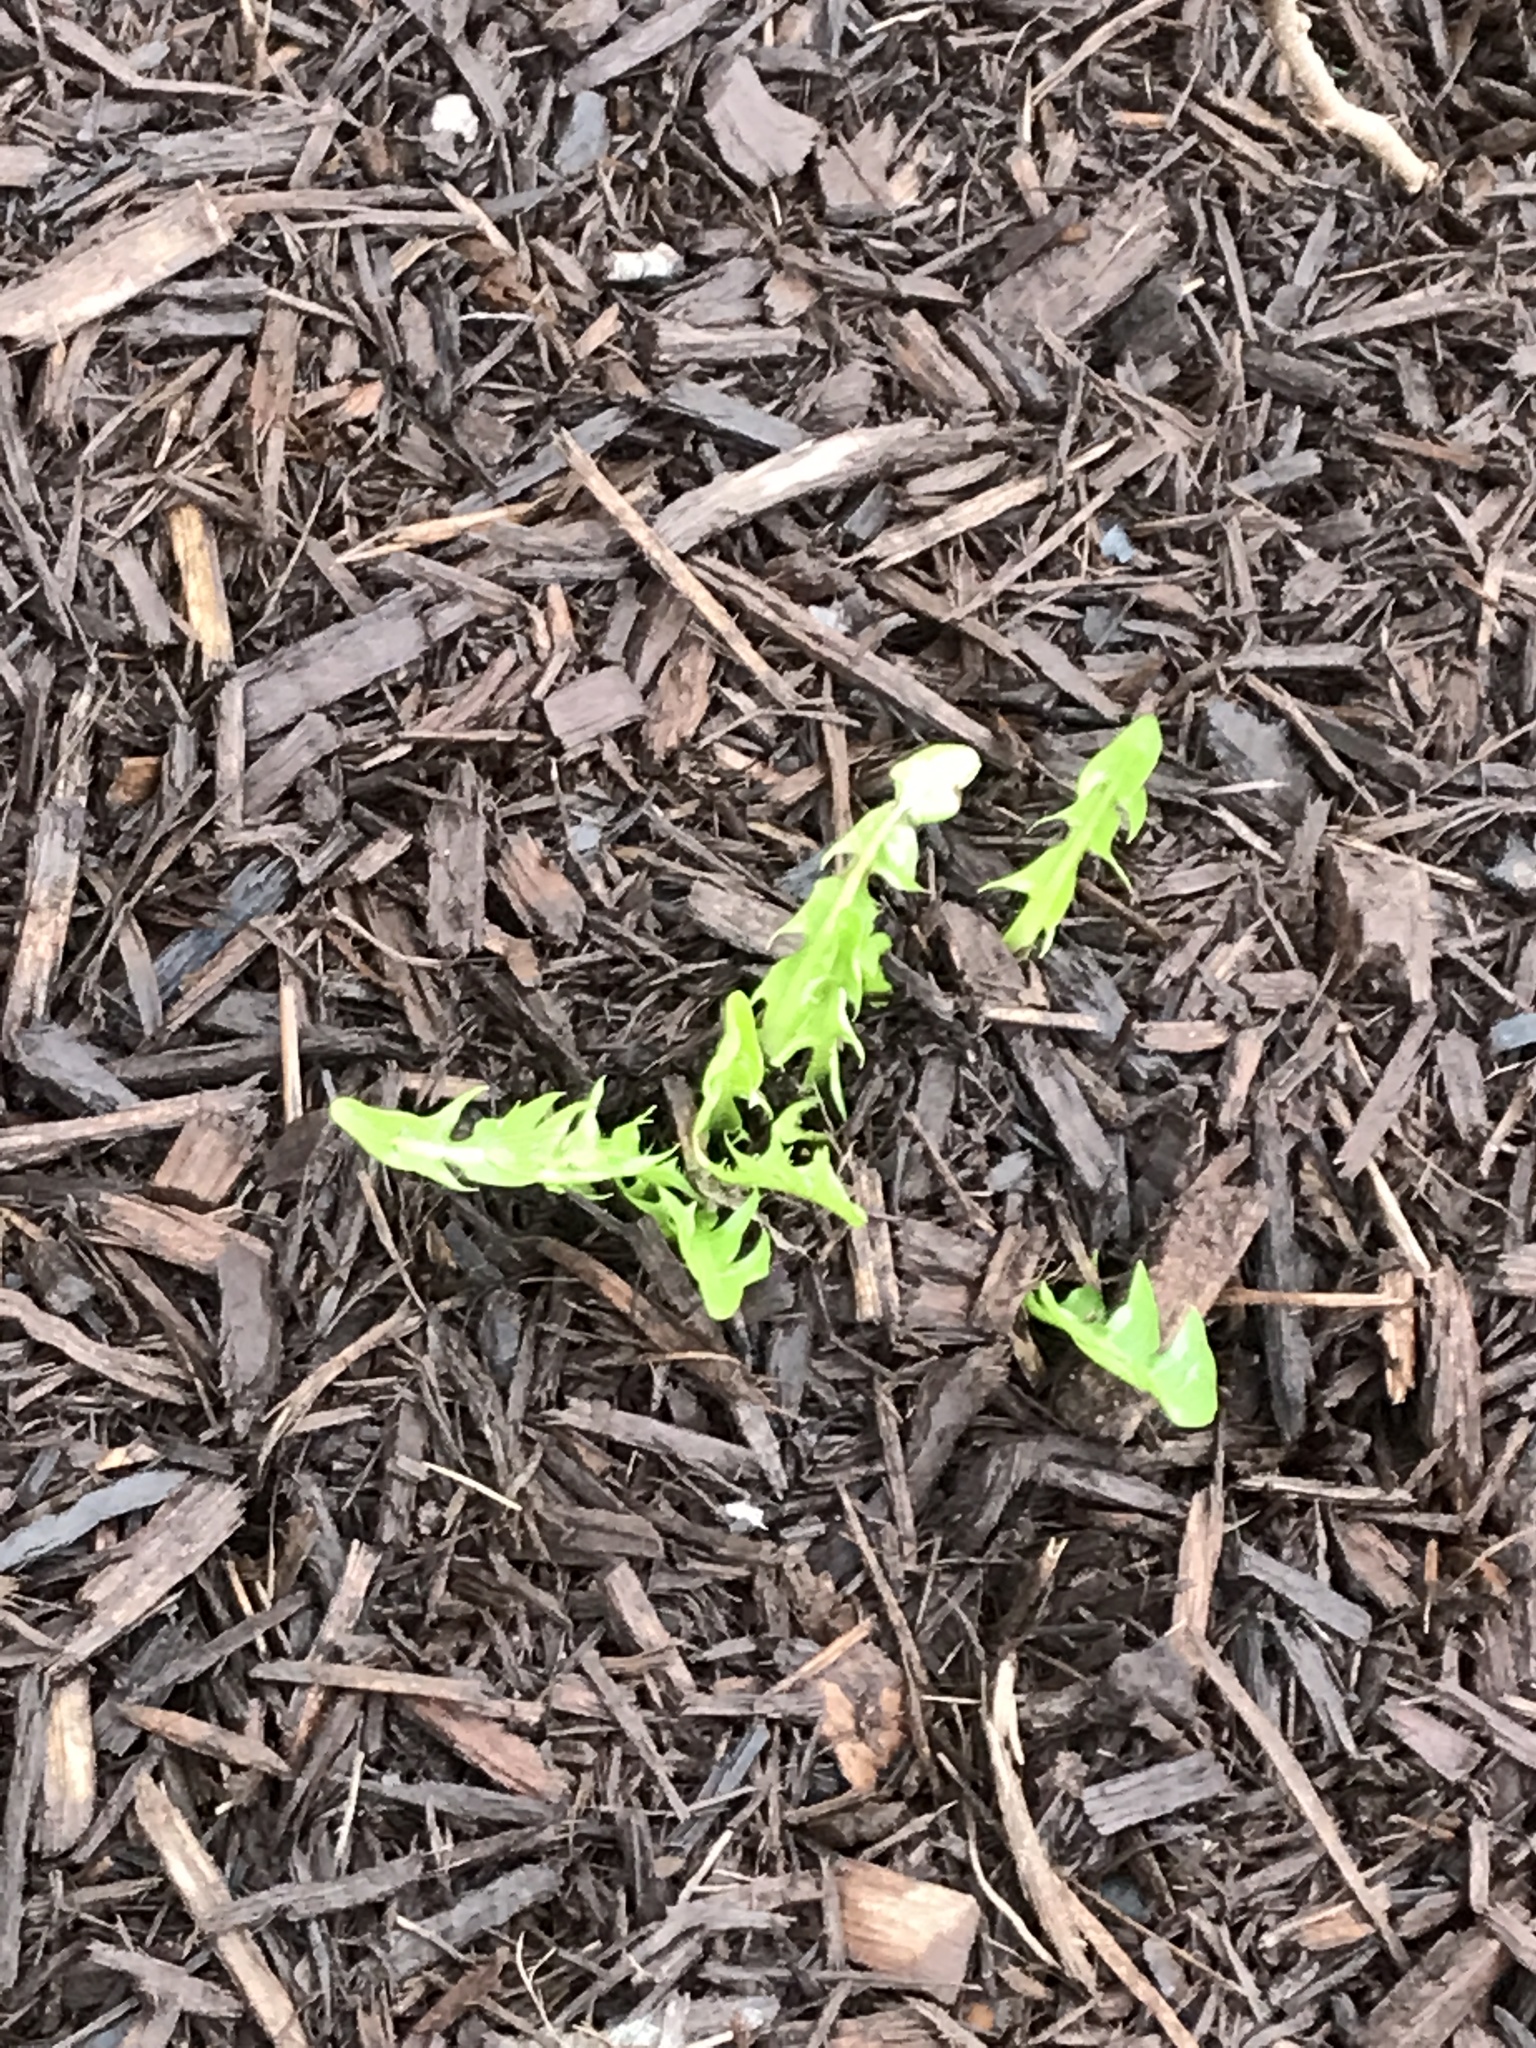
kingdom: Plantae
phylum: Tracheophyta
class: Magnoliopsida
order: Asterales
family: Asteraceae
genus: Taraxacum
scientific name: Taraxacum officinale
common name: Common dandelion
